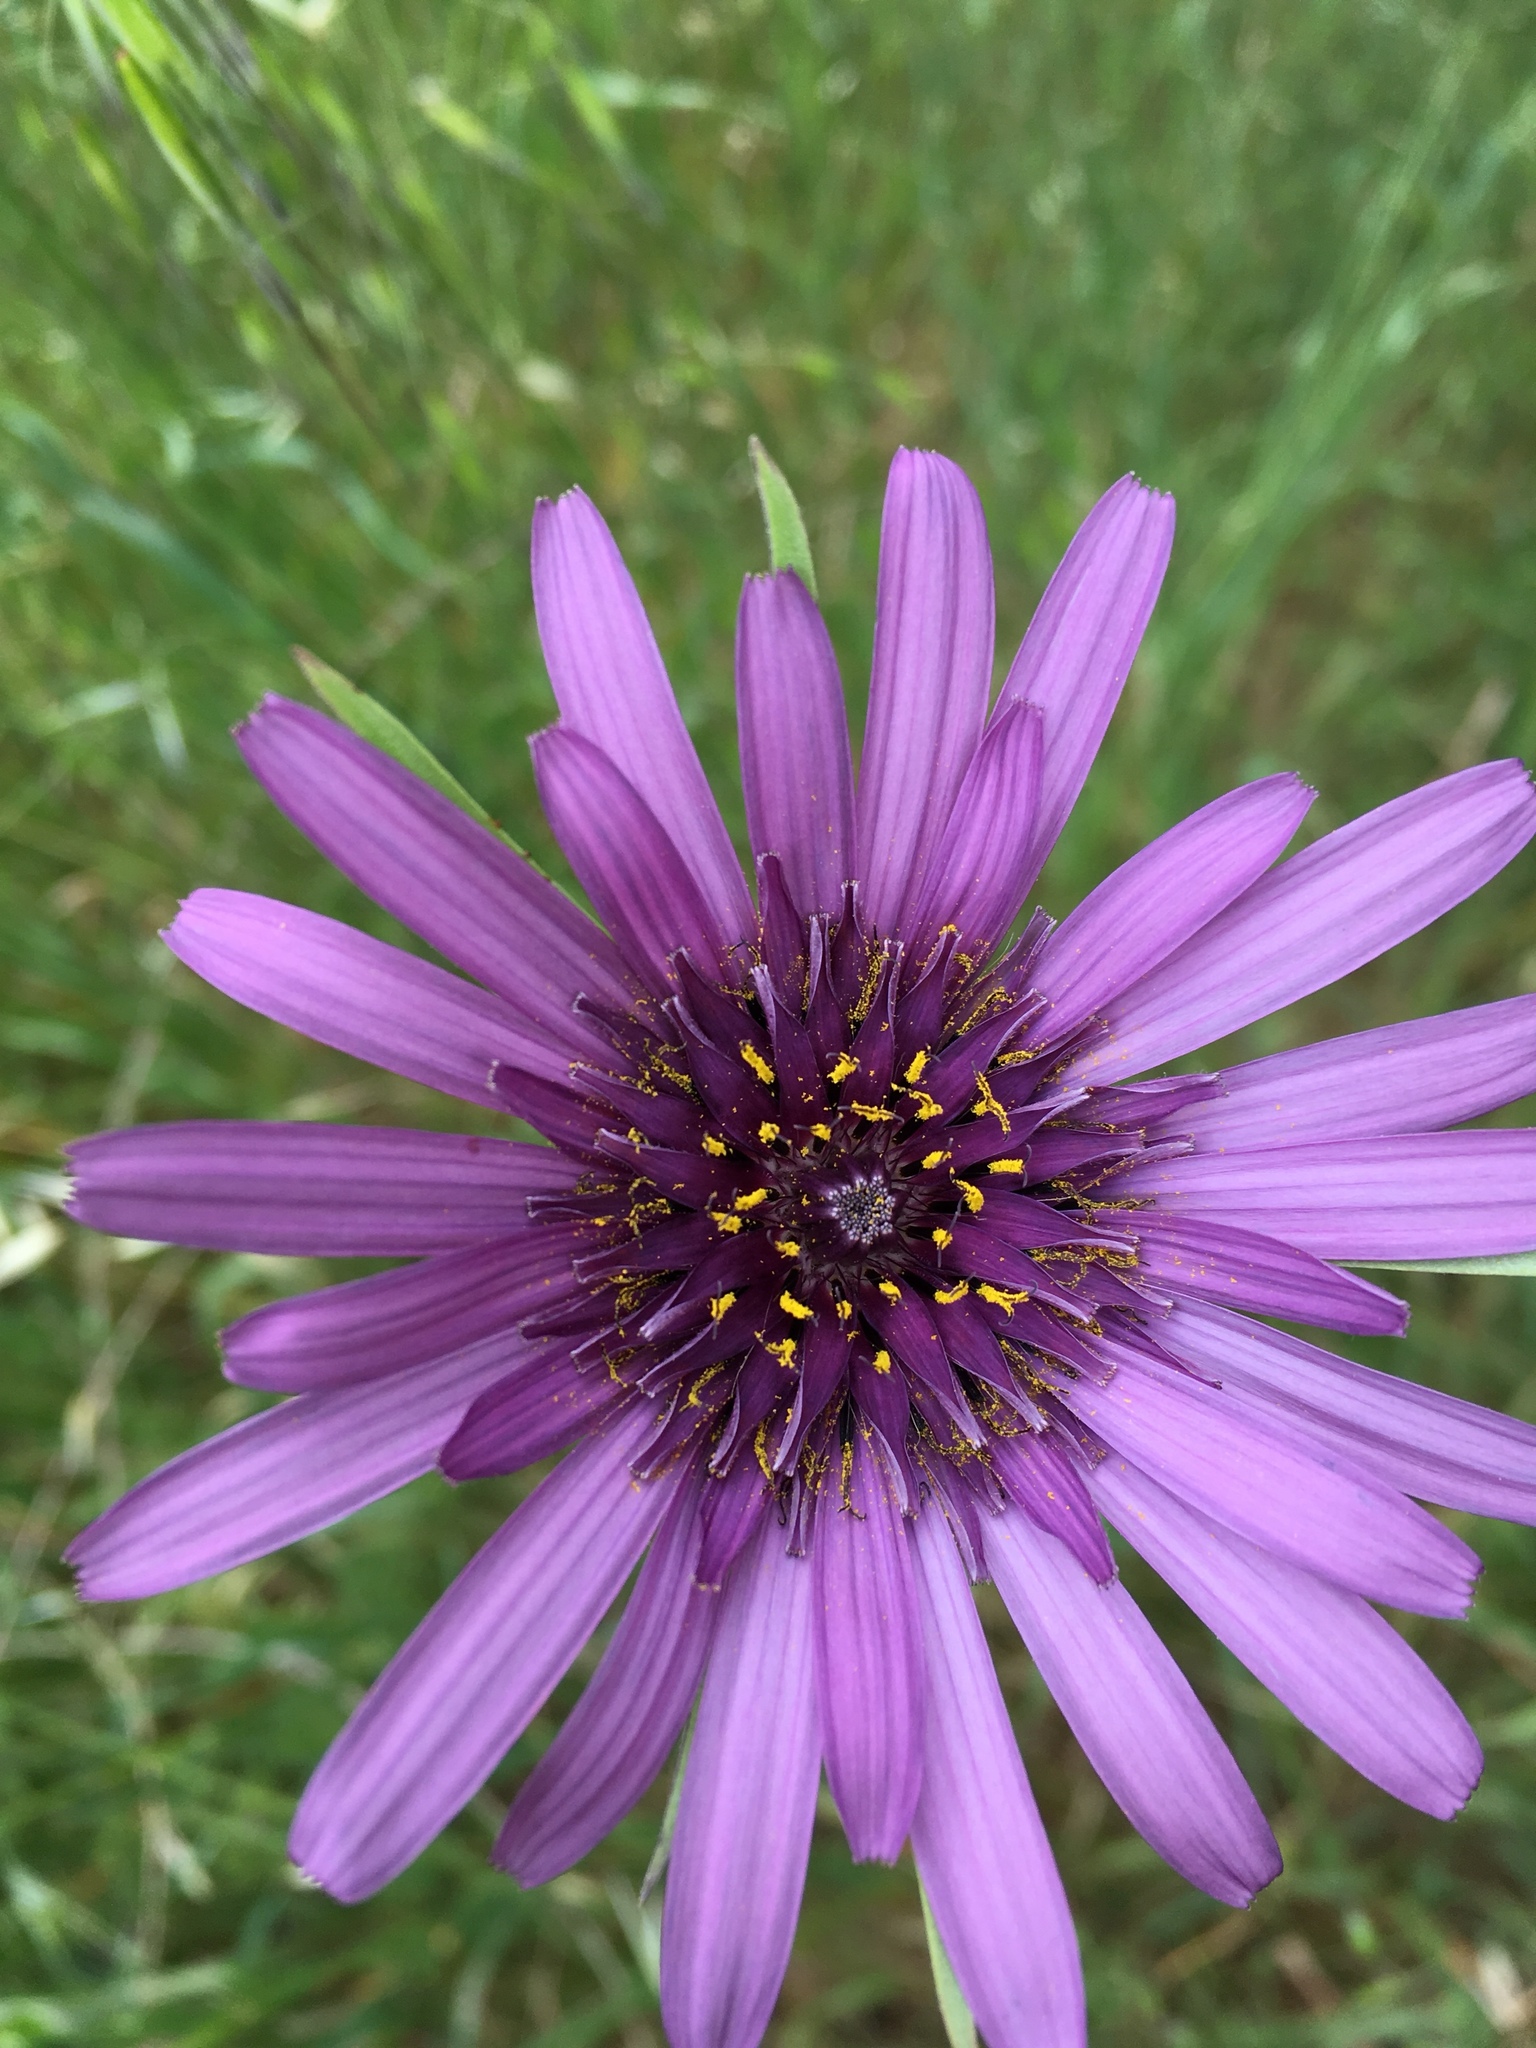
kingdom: Plantae
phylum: Tracheophyta
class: Magnoliopsida
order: Asterales
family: Asteraceae
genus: Tragopogon
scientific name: Tragopogon porrifolius
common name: Salsify
